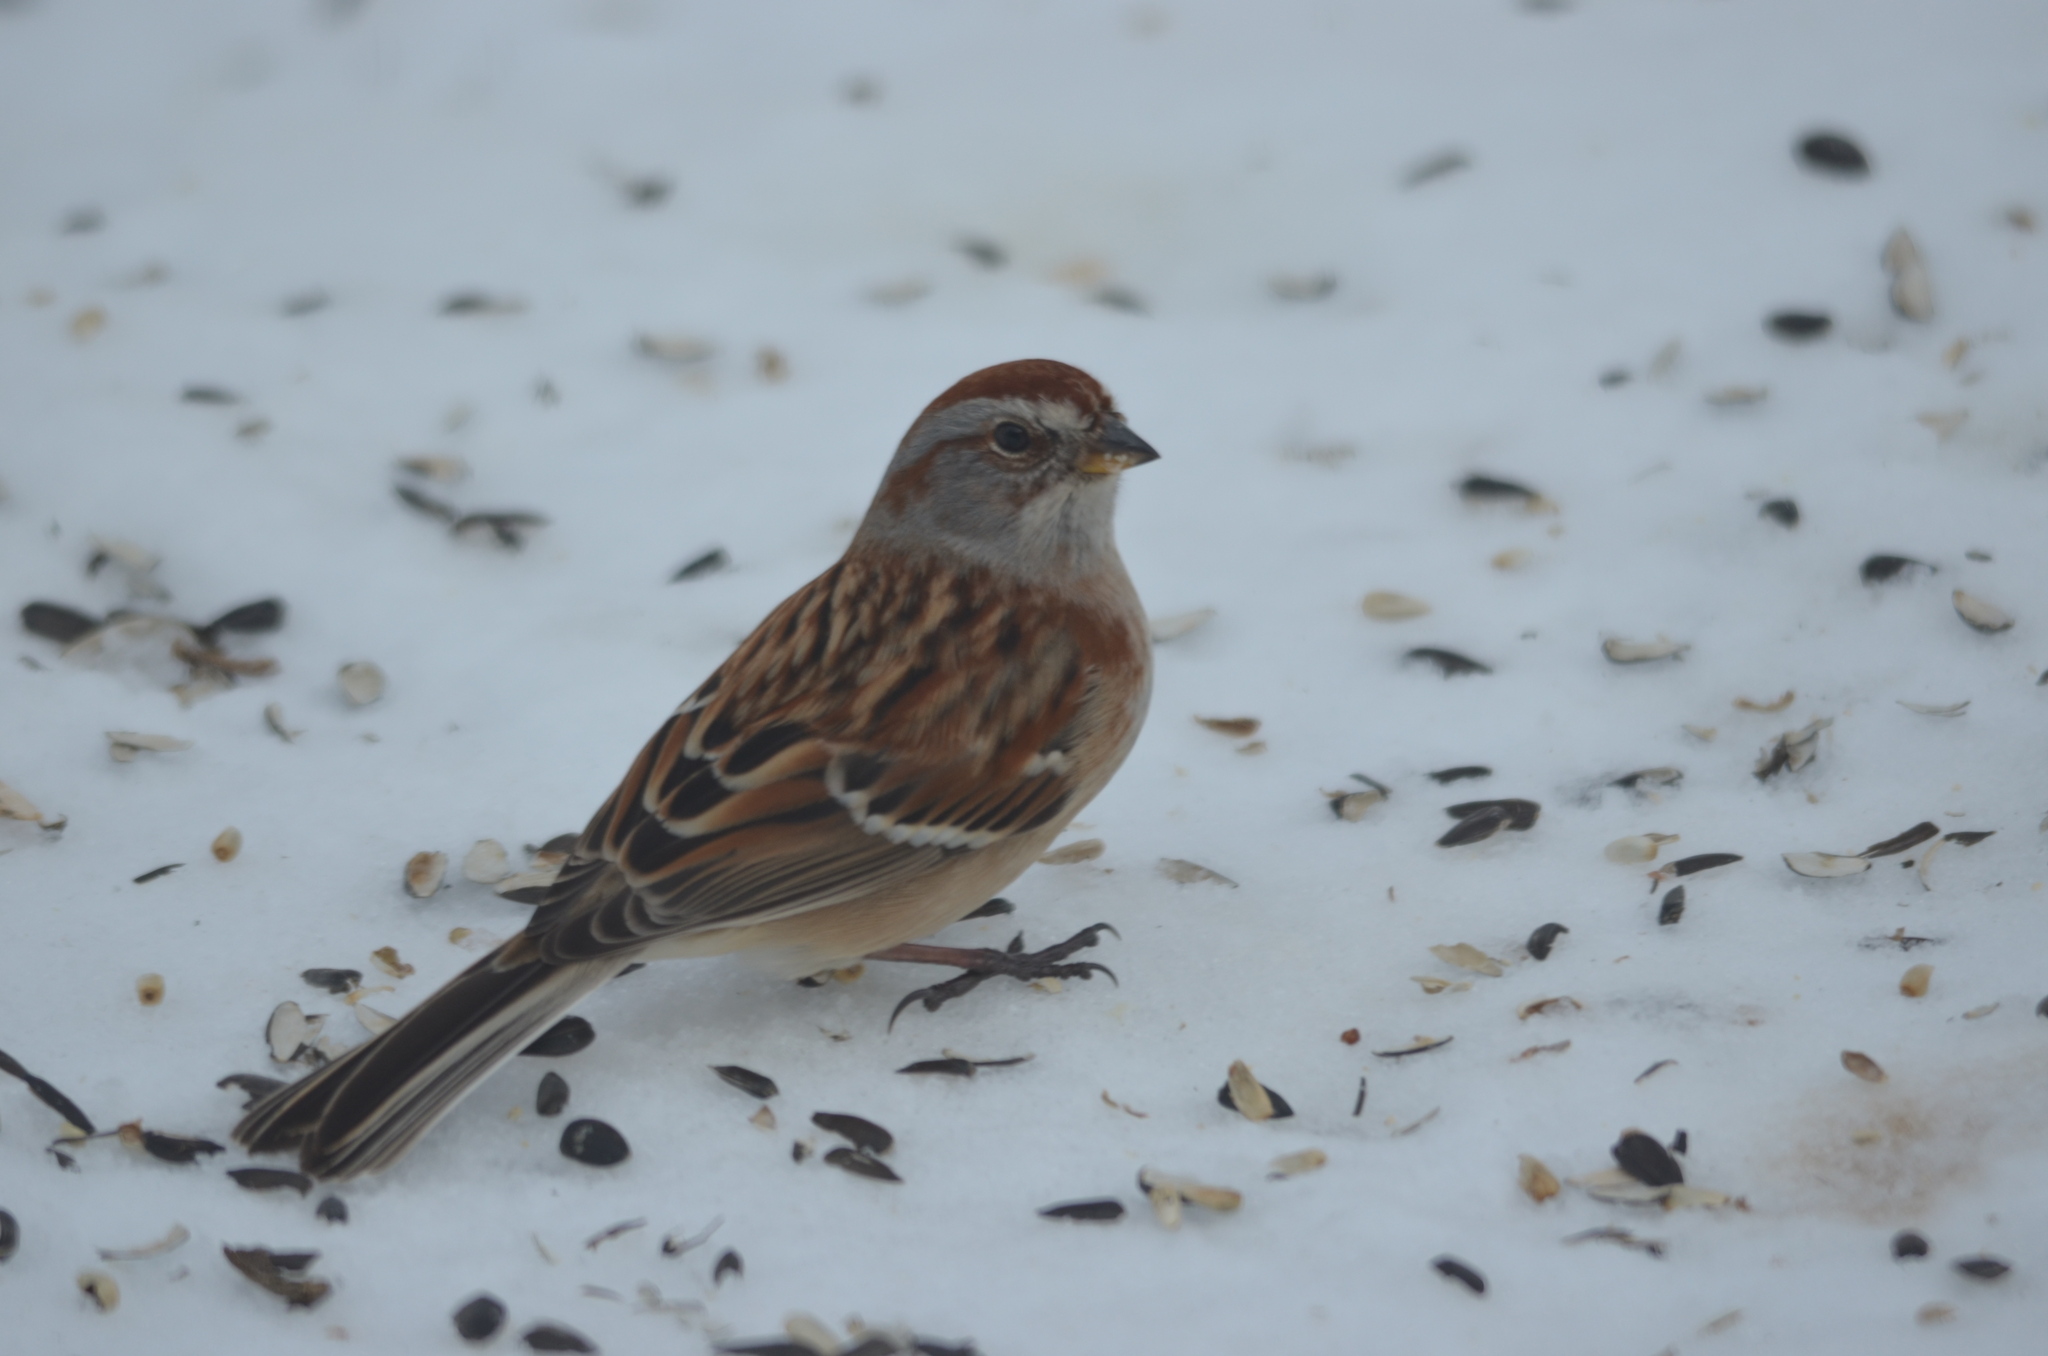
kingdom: Animalia
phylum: Chordata
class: Aves
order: Passeriformes
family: Passerellidae
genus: Spizelloides
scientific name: Spizelloides arborea
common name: American tree sparrow
